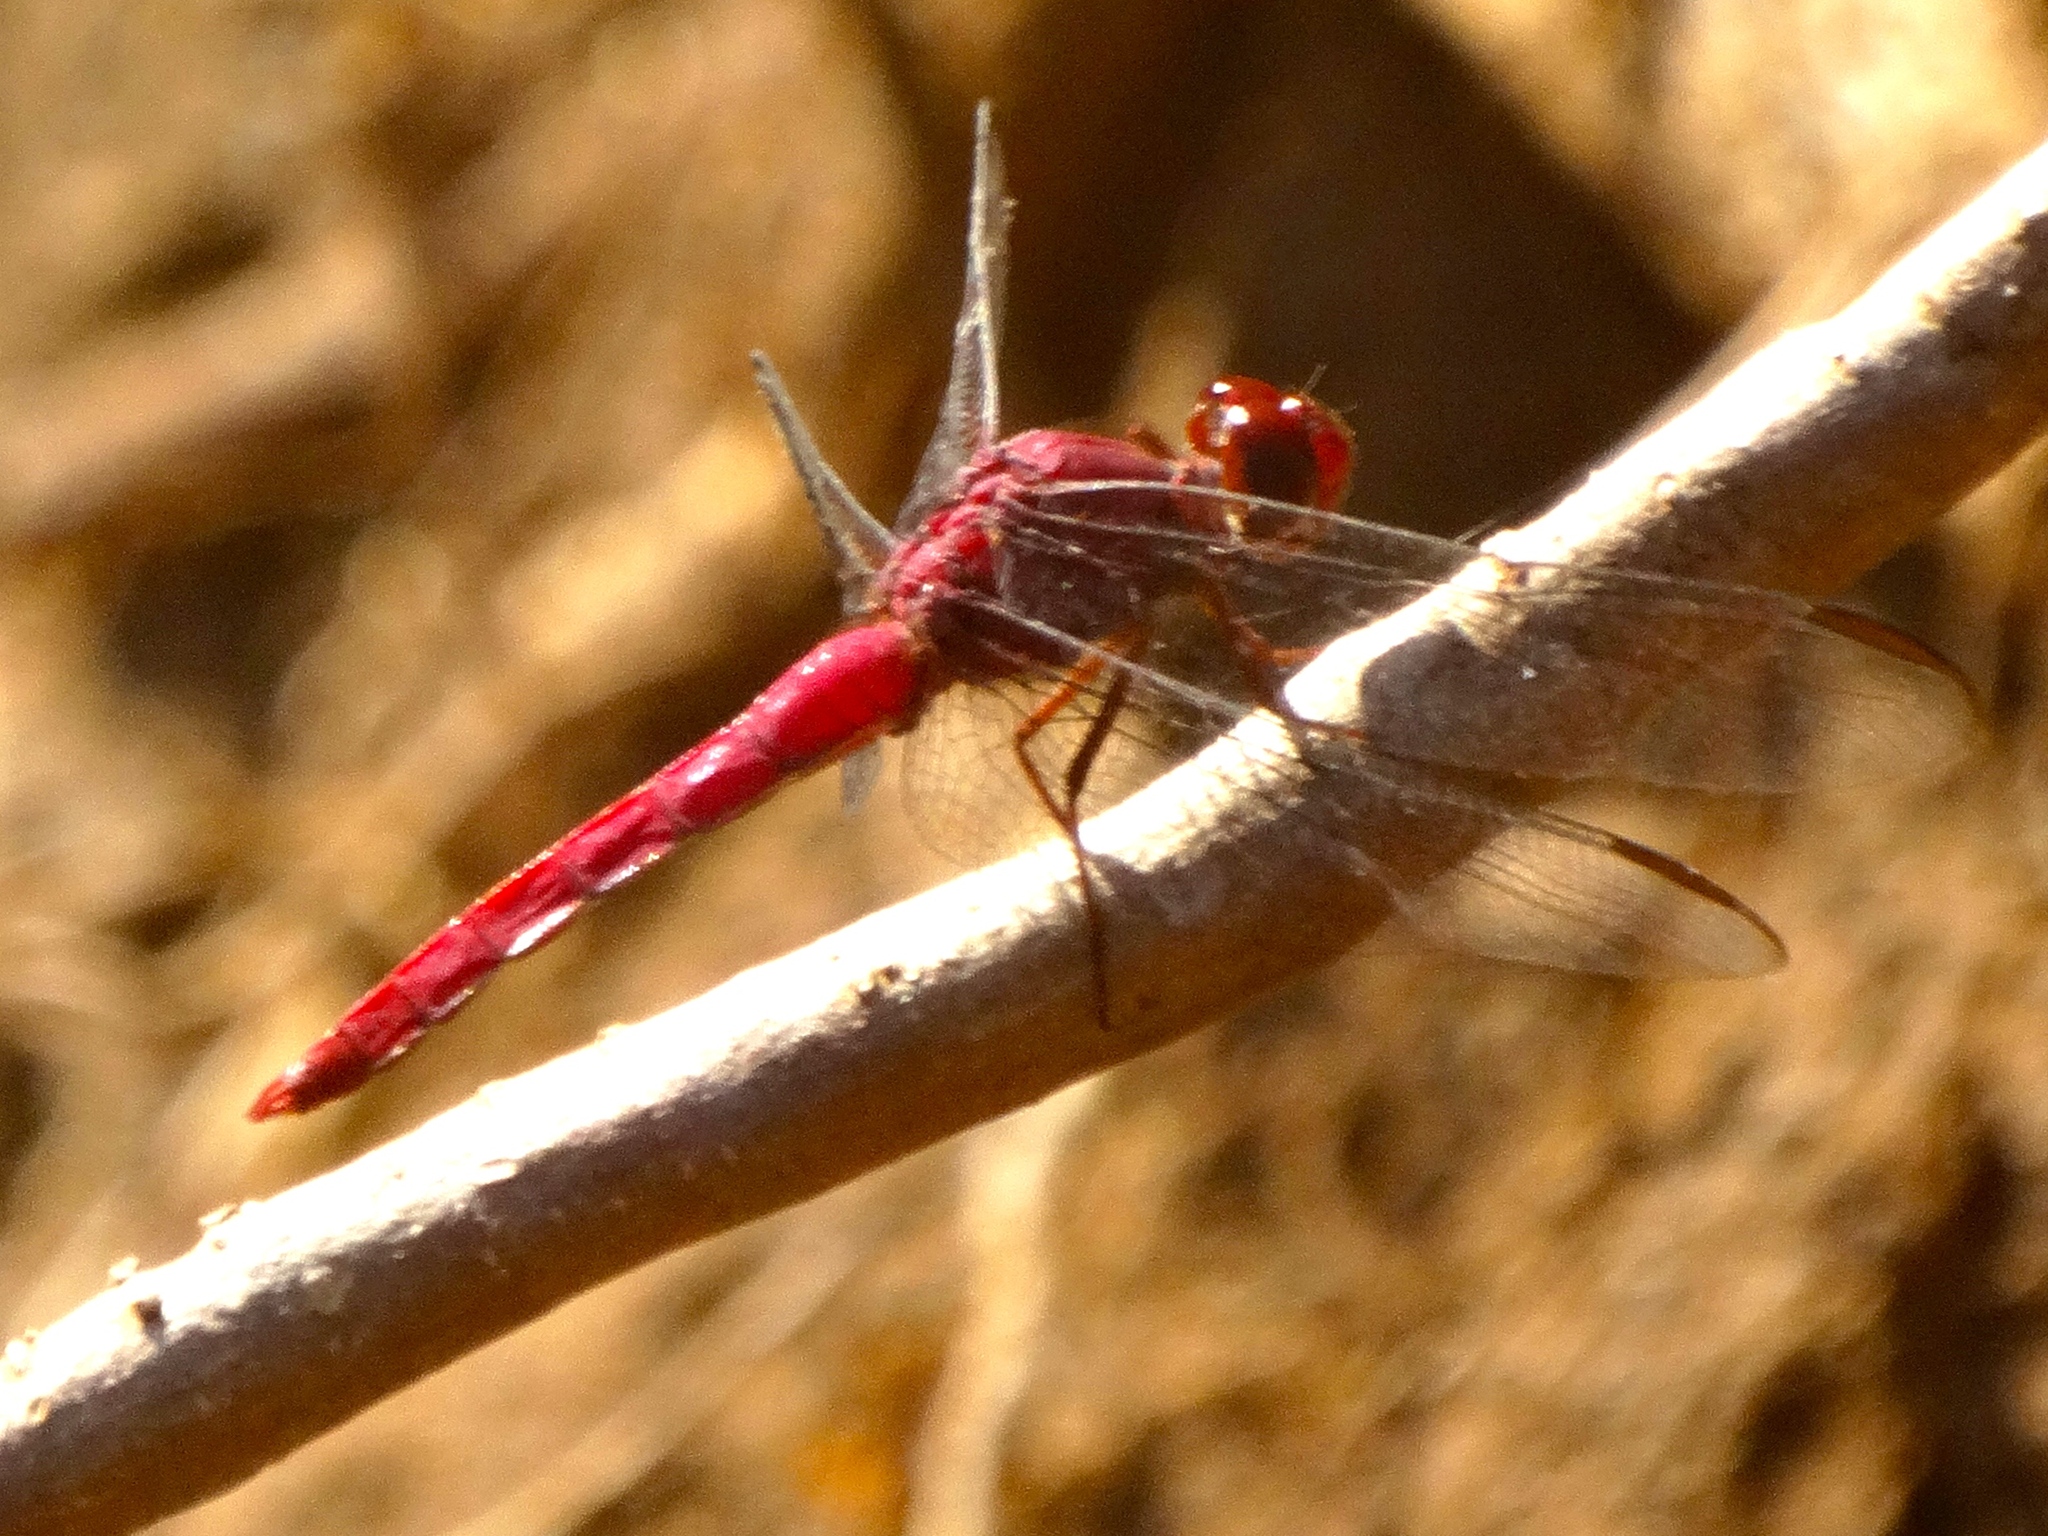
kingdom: Animalia
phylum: Arthropoda
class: Insecta
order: Odonata
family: Libellulidae
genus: Orthemis
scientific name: Orthemis discolor
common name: Carmine skimmer
